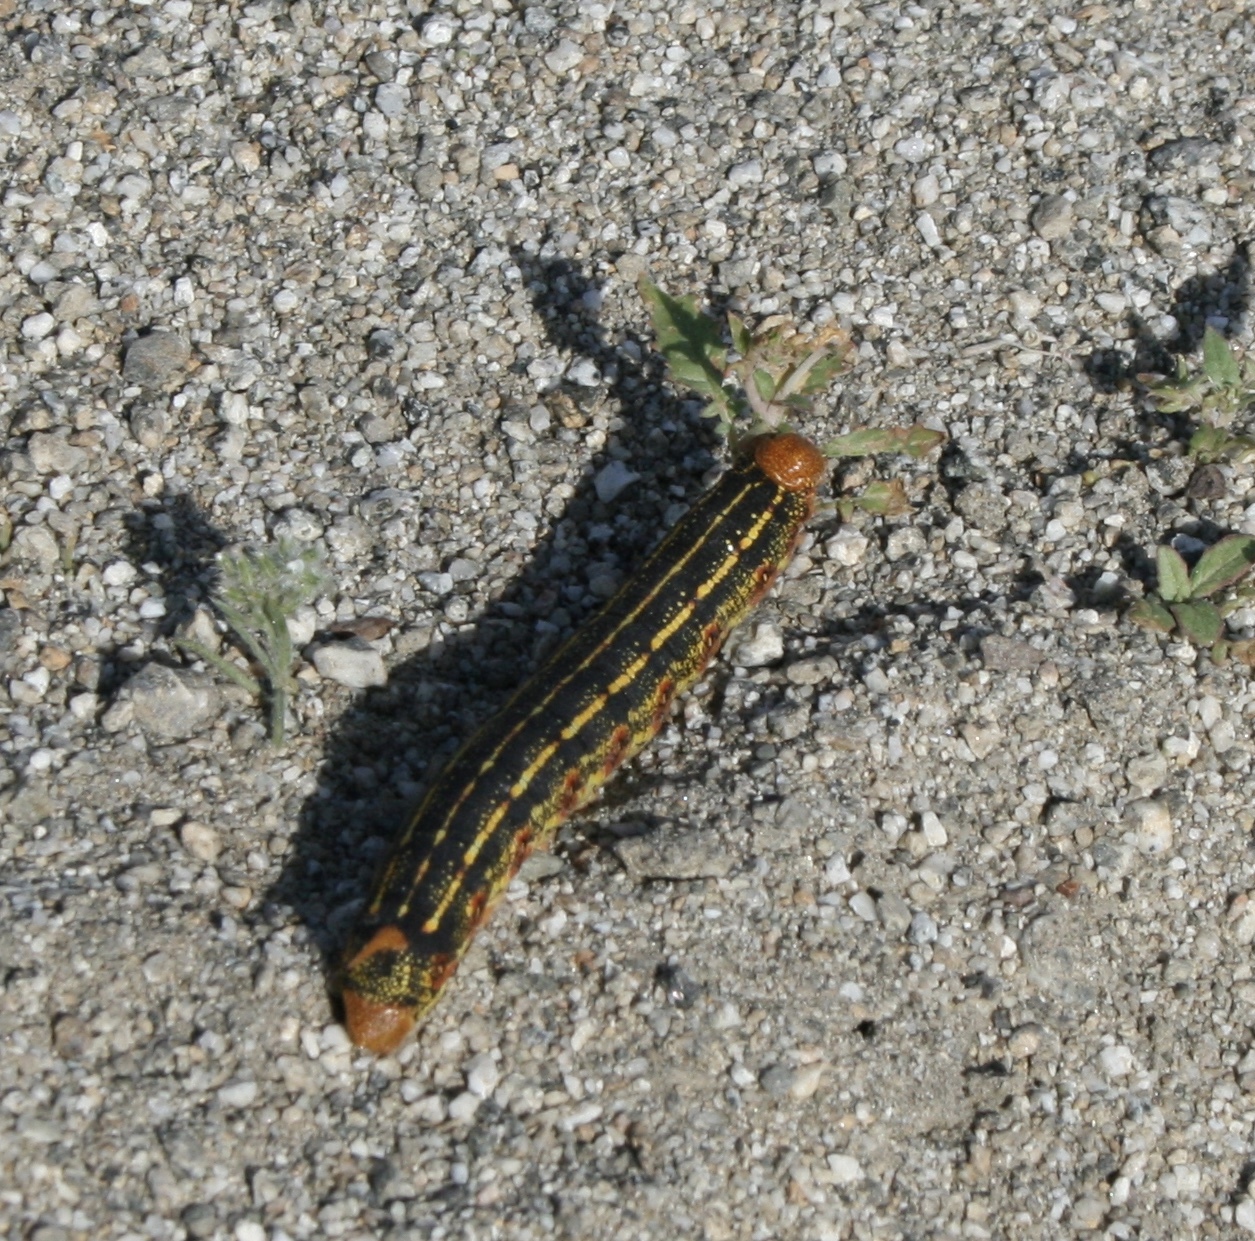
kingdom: Animalia
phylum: Arthropoda
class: Insecta
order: Lepidoptera
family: Sphingidae
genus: Hyles
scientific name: Hyles lineata
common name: White-lined sphinx
